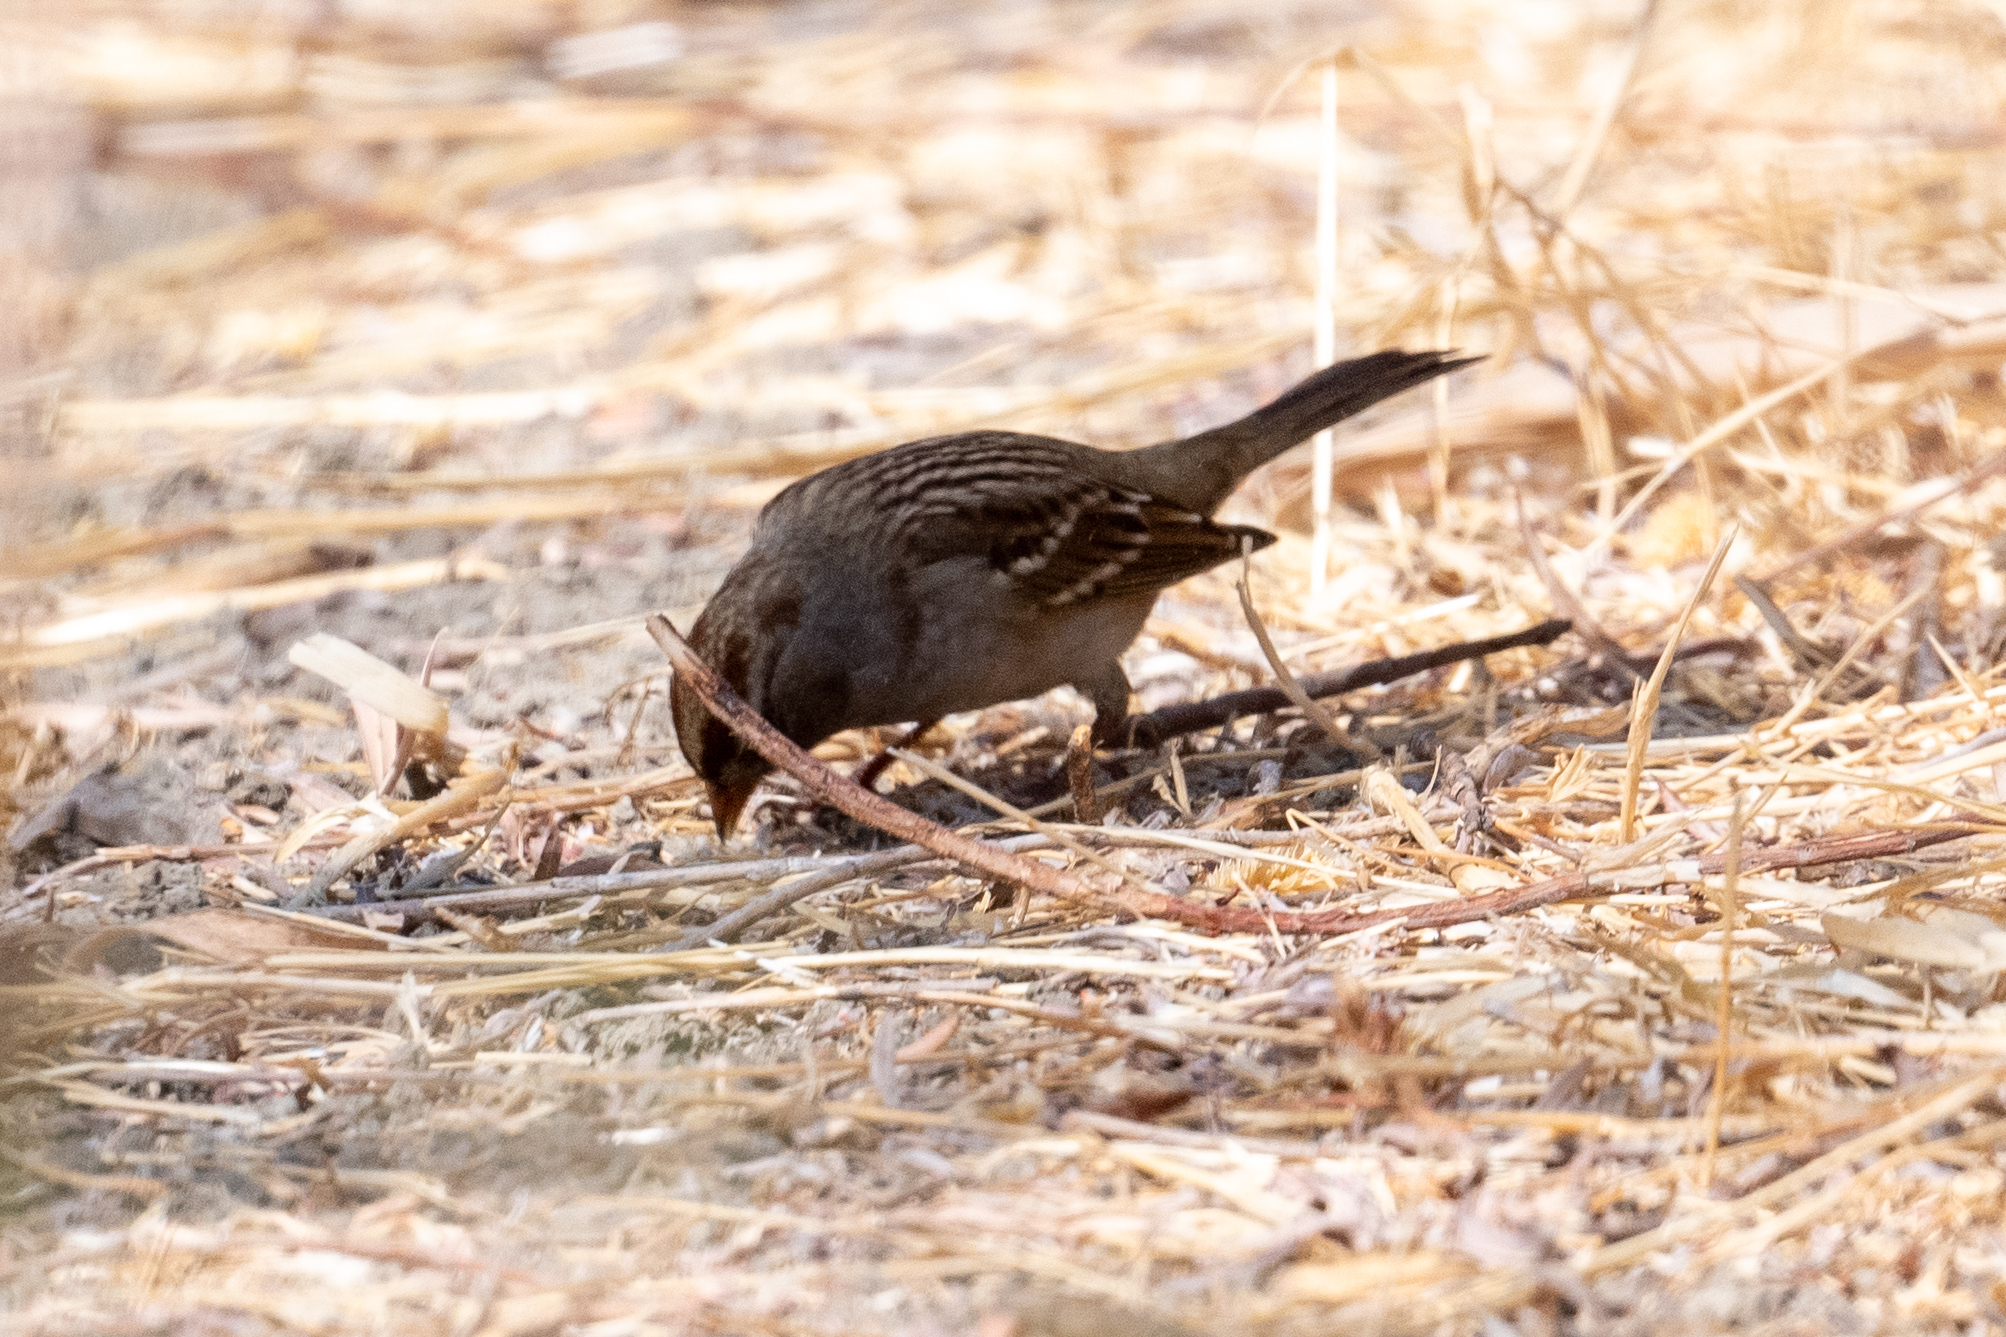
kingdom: Animalia
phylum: Chordata
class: Aves
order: Passeriformes
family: Passerellidae
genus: Zonotrichia
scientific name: Zonotrichia leucophrys
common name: White-crowned sparrow
